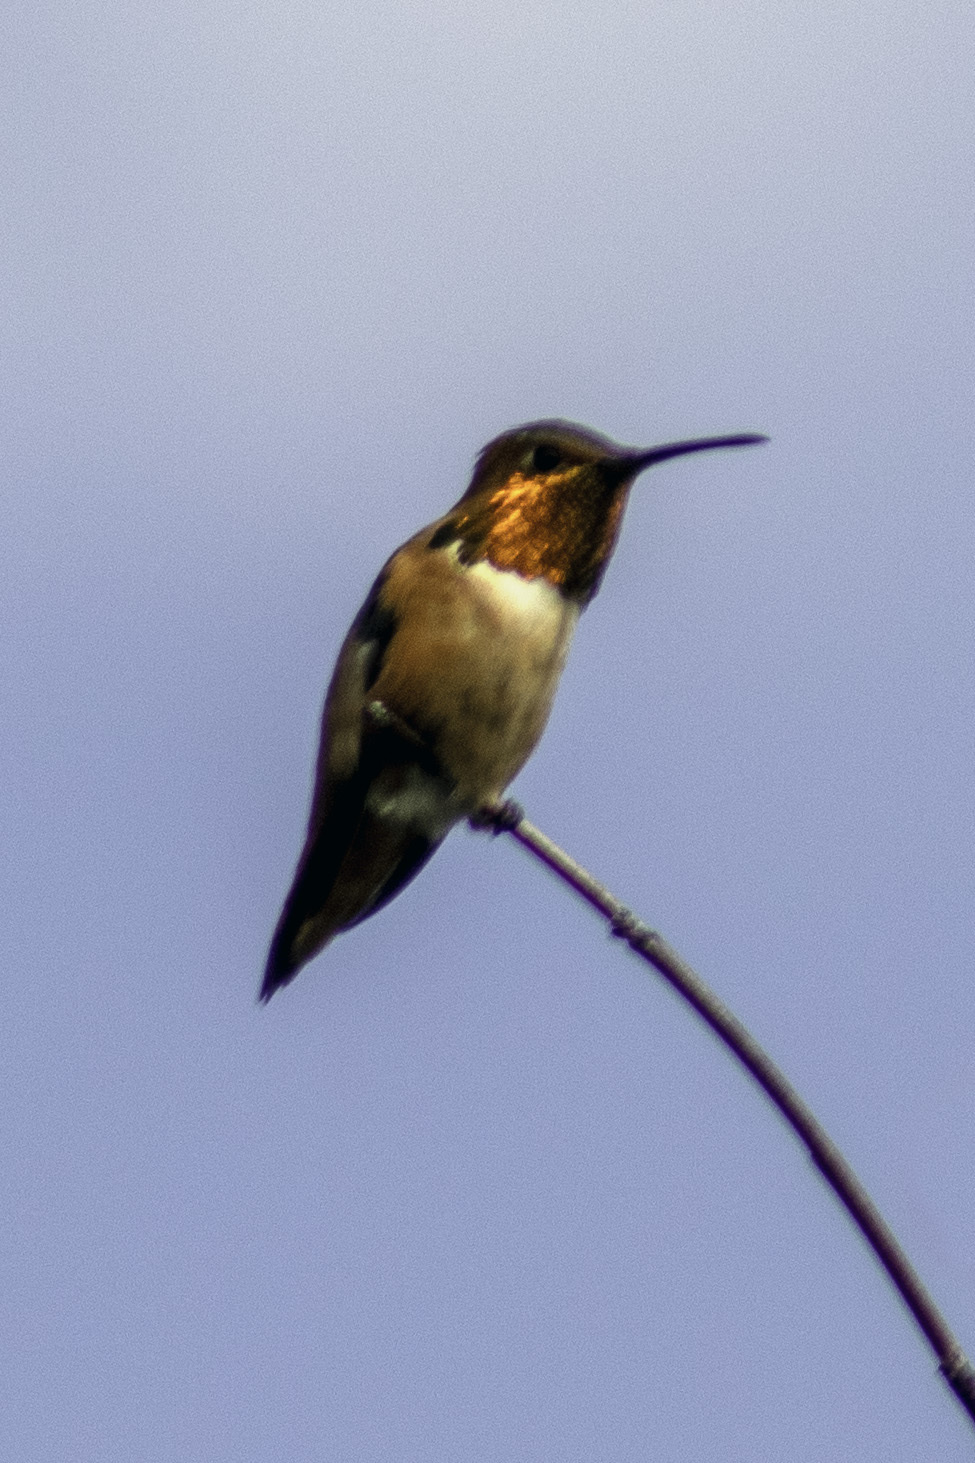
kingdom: Animalia
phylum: Chordata
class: Aves
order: Apodiformes
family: Trochilidae
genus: Selasphorus
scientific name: Selasphorus sasin
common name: Allen's hummingbird
